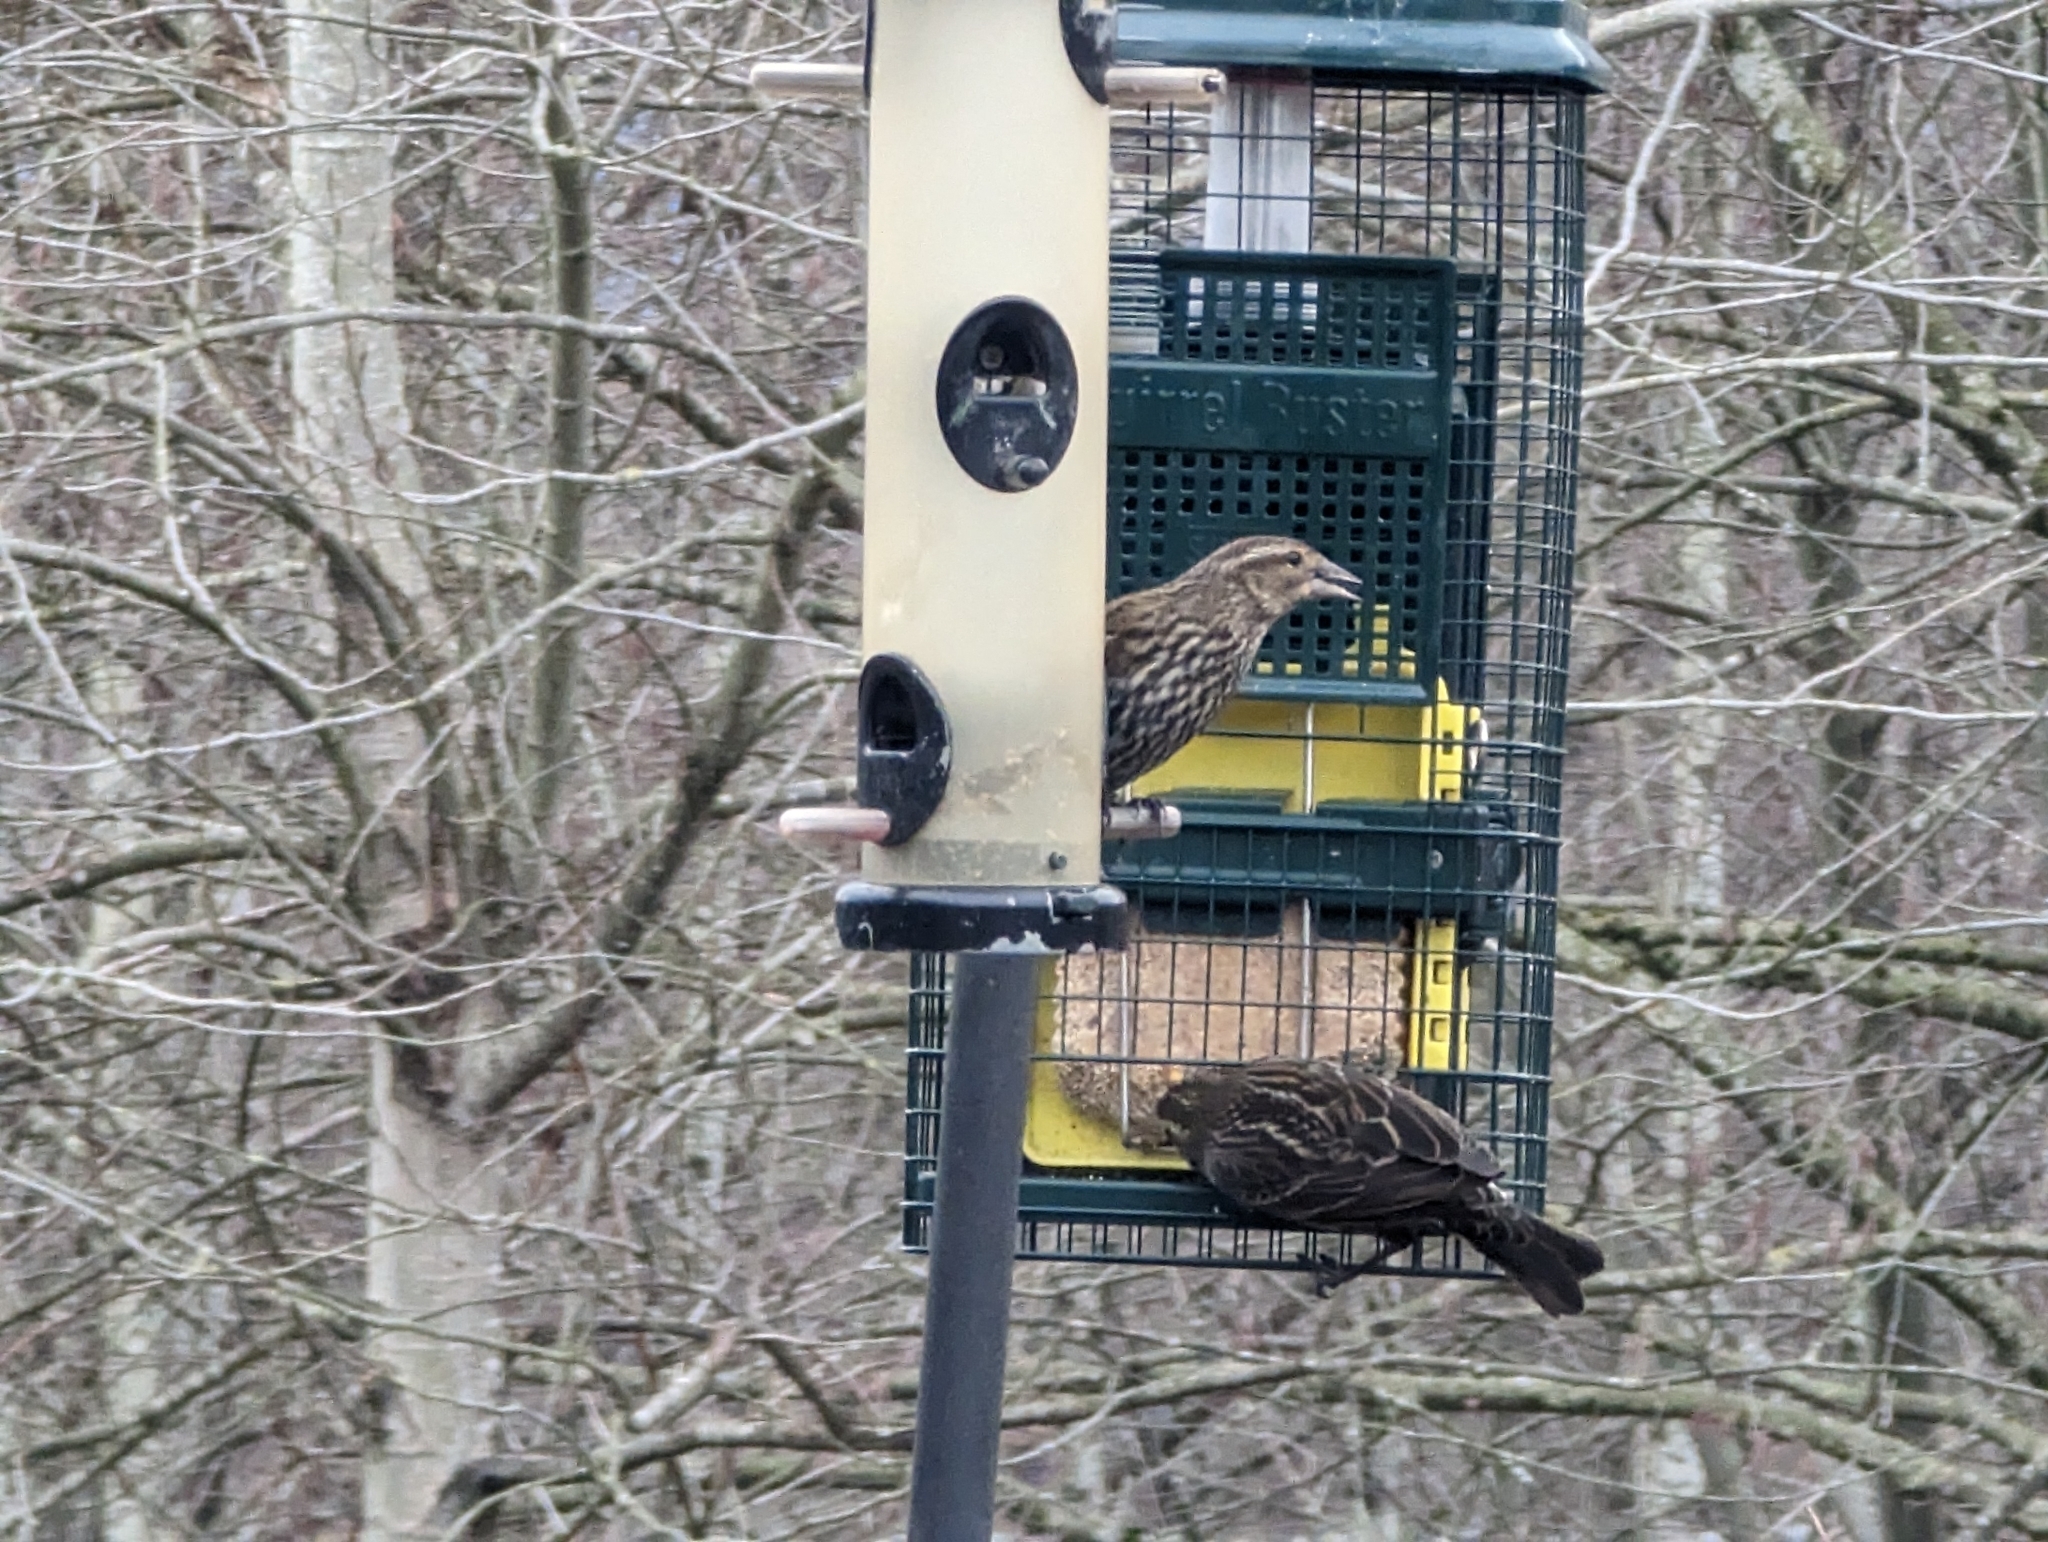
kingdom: Animalia
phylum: Chordata
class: Aves
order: Passeriformes
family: Icteridae
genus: Agelaius
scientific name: Agelaius phoeniceus
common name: Red-winged blackbird
